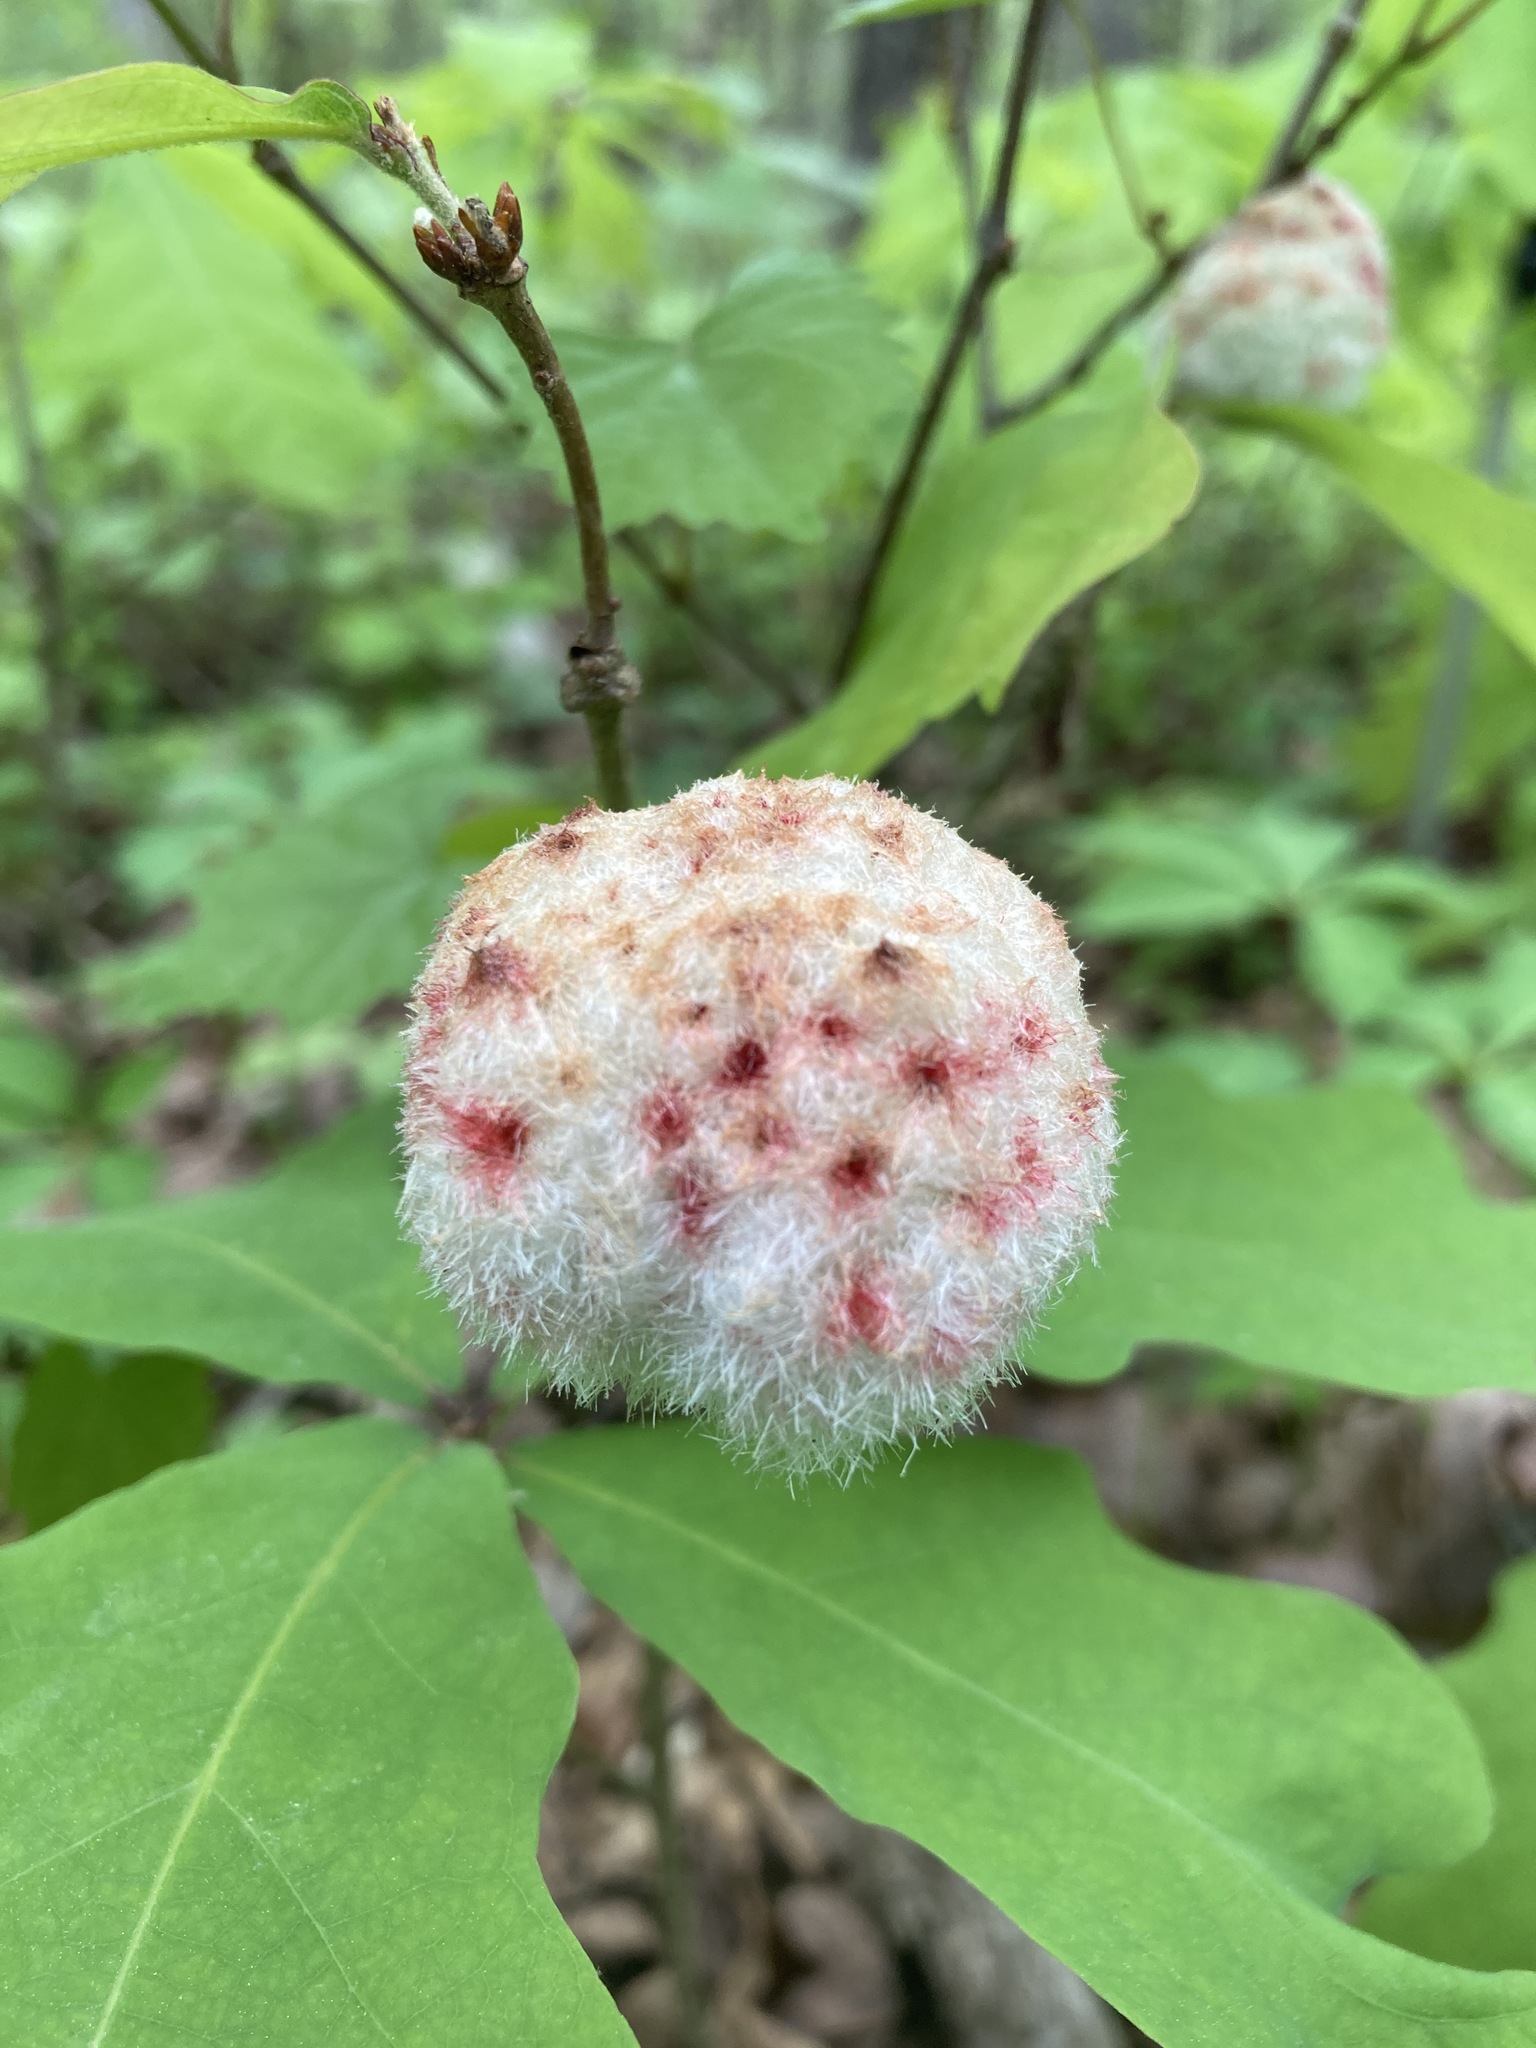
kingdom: Animalia
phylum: Arthropoda
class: Insecta
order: Hymenoptera
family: Cynipidae
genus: Callirhytis
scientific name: Callirhytis
